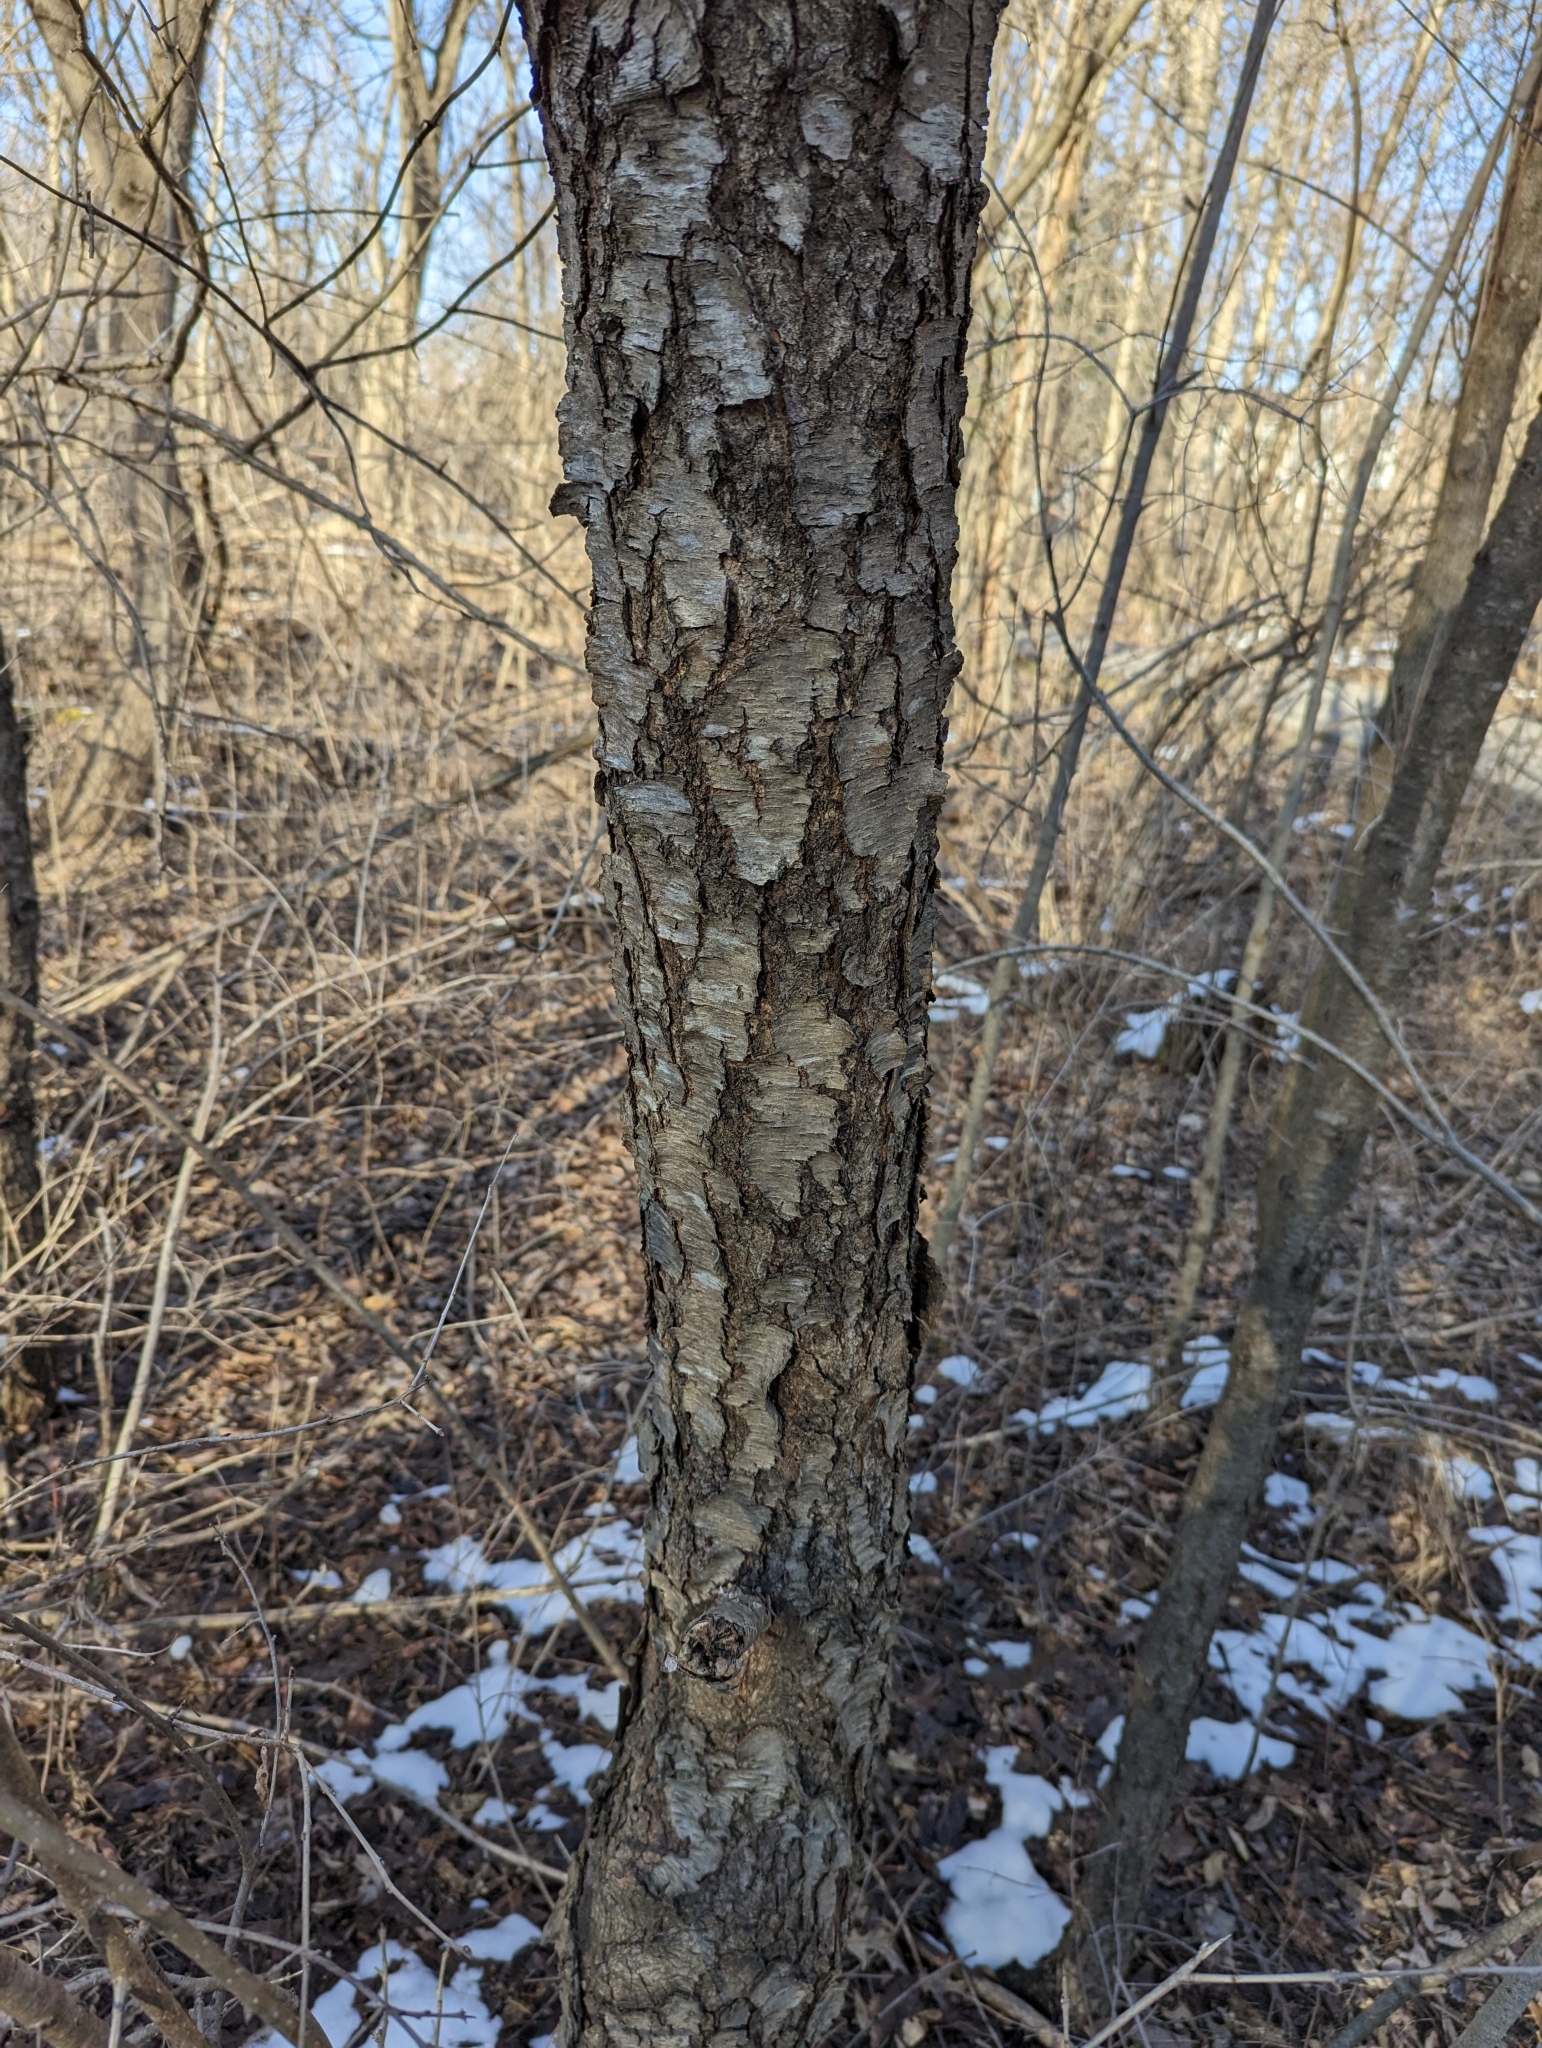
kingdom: Plantae
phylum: Tracheophyta
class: Magnoliopsida
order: Rosales
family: Rosaceae
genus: Prunus
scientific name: Prunus serotina
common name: Black cherry
